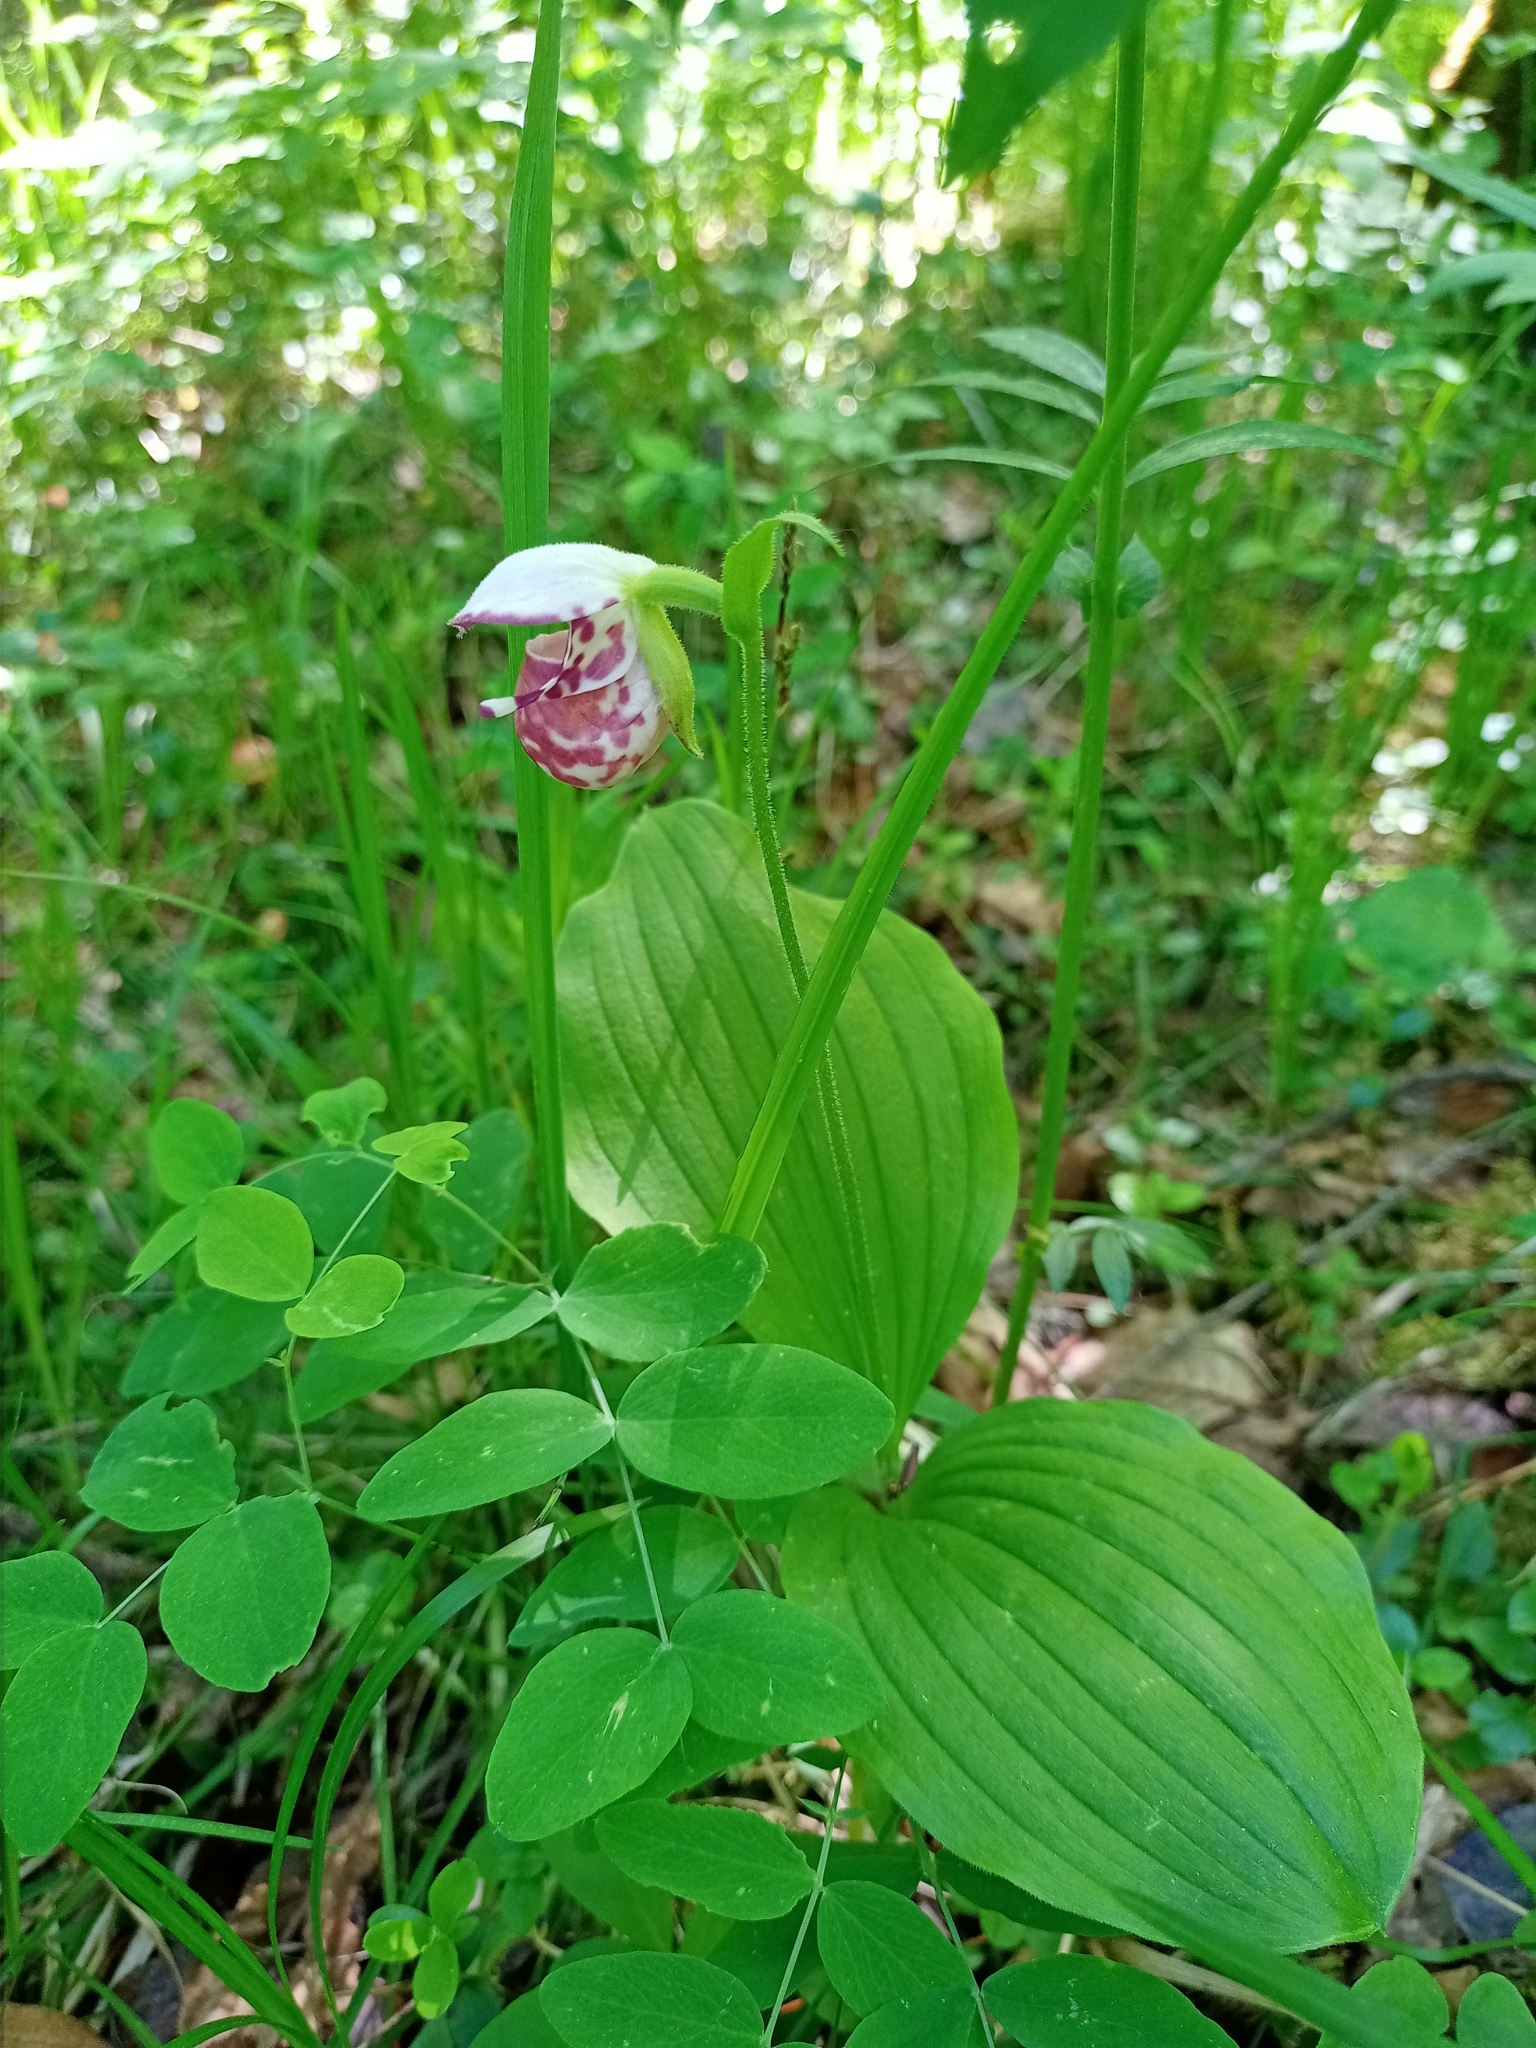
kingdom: Plantae
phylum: Tracheophyta
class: Liliopsida
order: Asparagales
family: Orchidaceae
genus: Cypripedium
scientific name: Cypripedium guttatum
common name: Pink lady slipper
